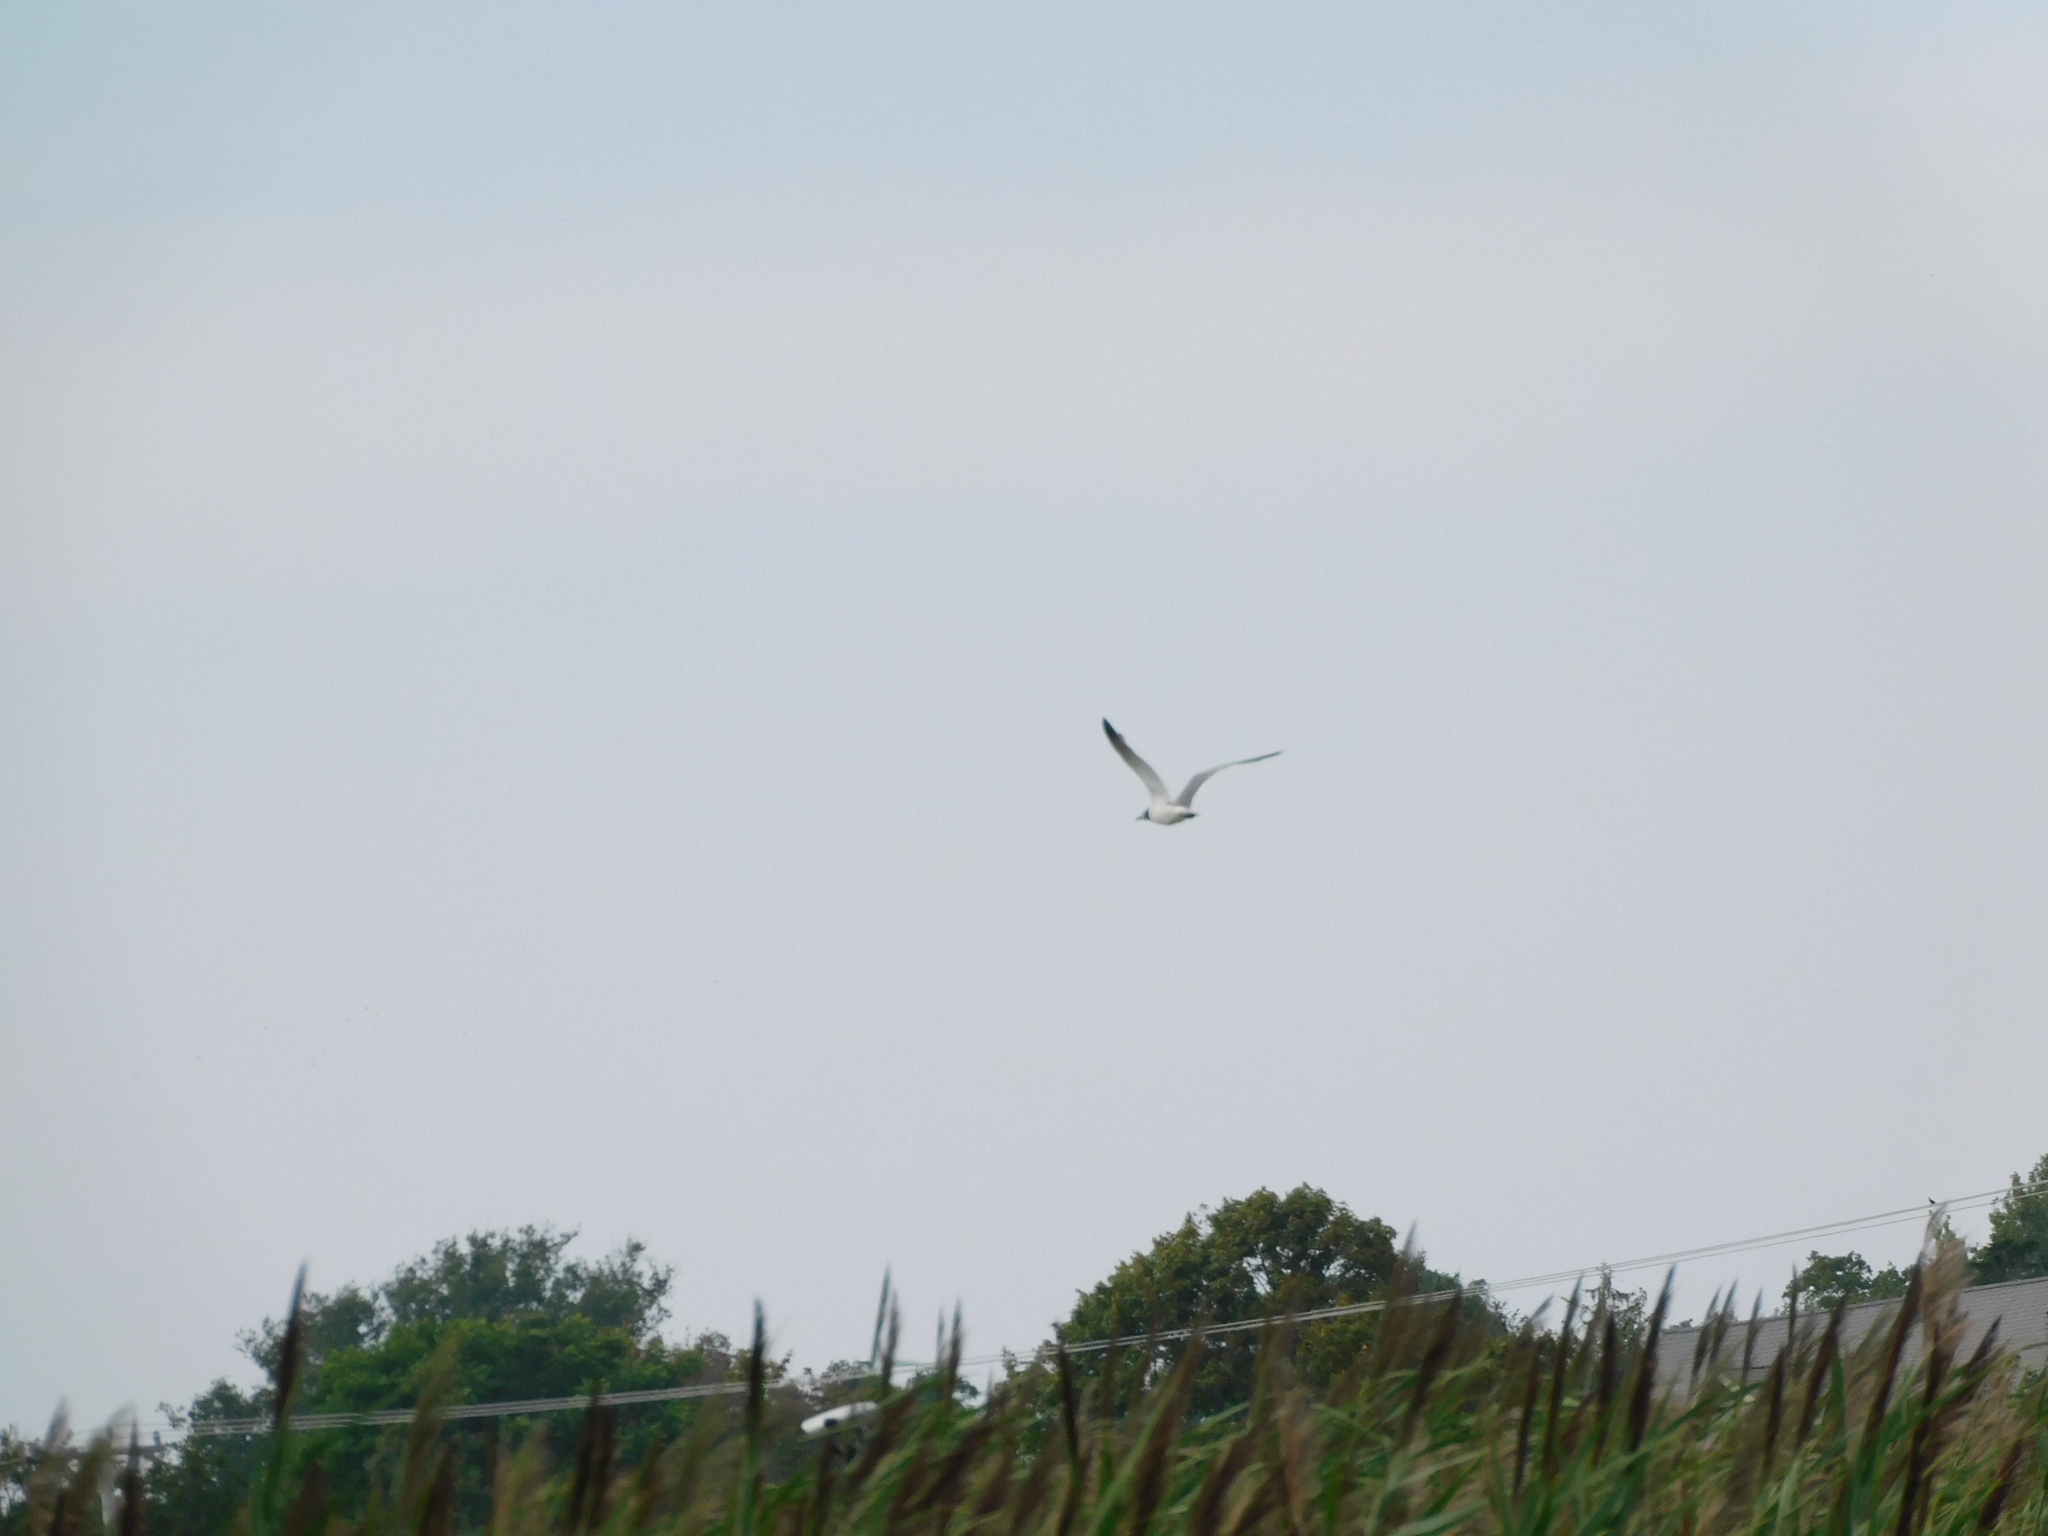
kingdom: Animalia
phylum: Chordata
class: Aves
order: Charadriiformes
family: Laridae
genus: Leucophaeus
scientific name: Leucophaeus atricilla
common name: Laughing gull
